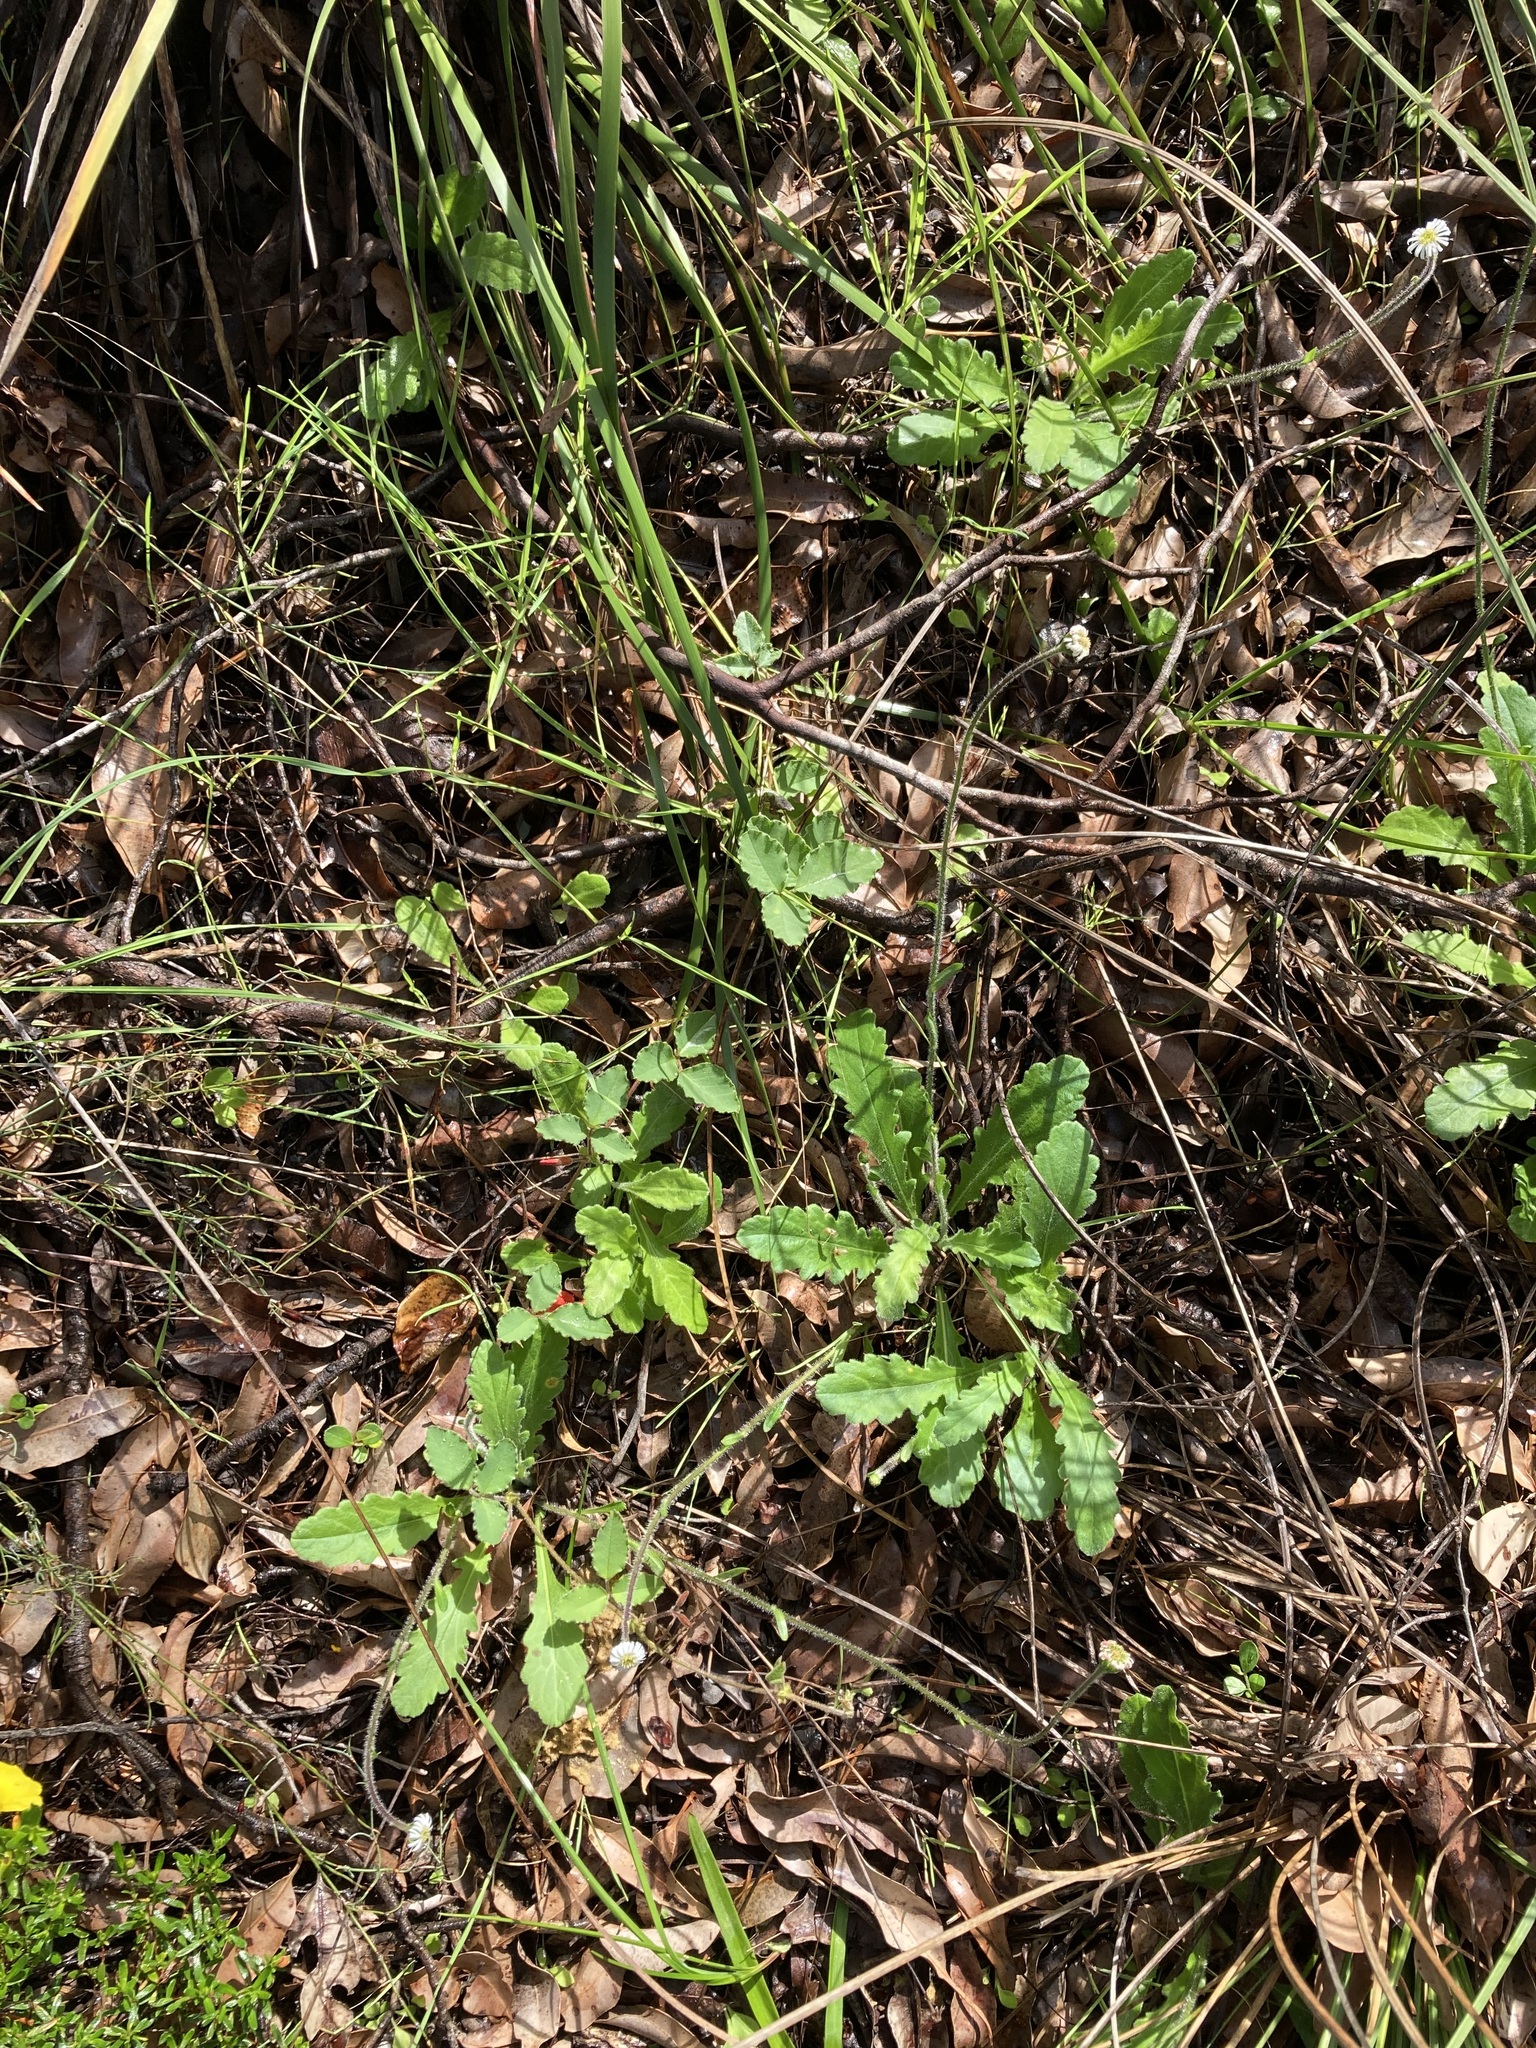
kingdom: Plantae
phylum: Tracheophyta
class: Magnoliopsida
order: Asterales
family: Asteraceae
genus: Lagenophora
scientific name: Lagenophora huegelii
